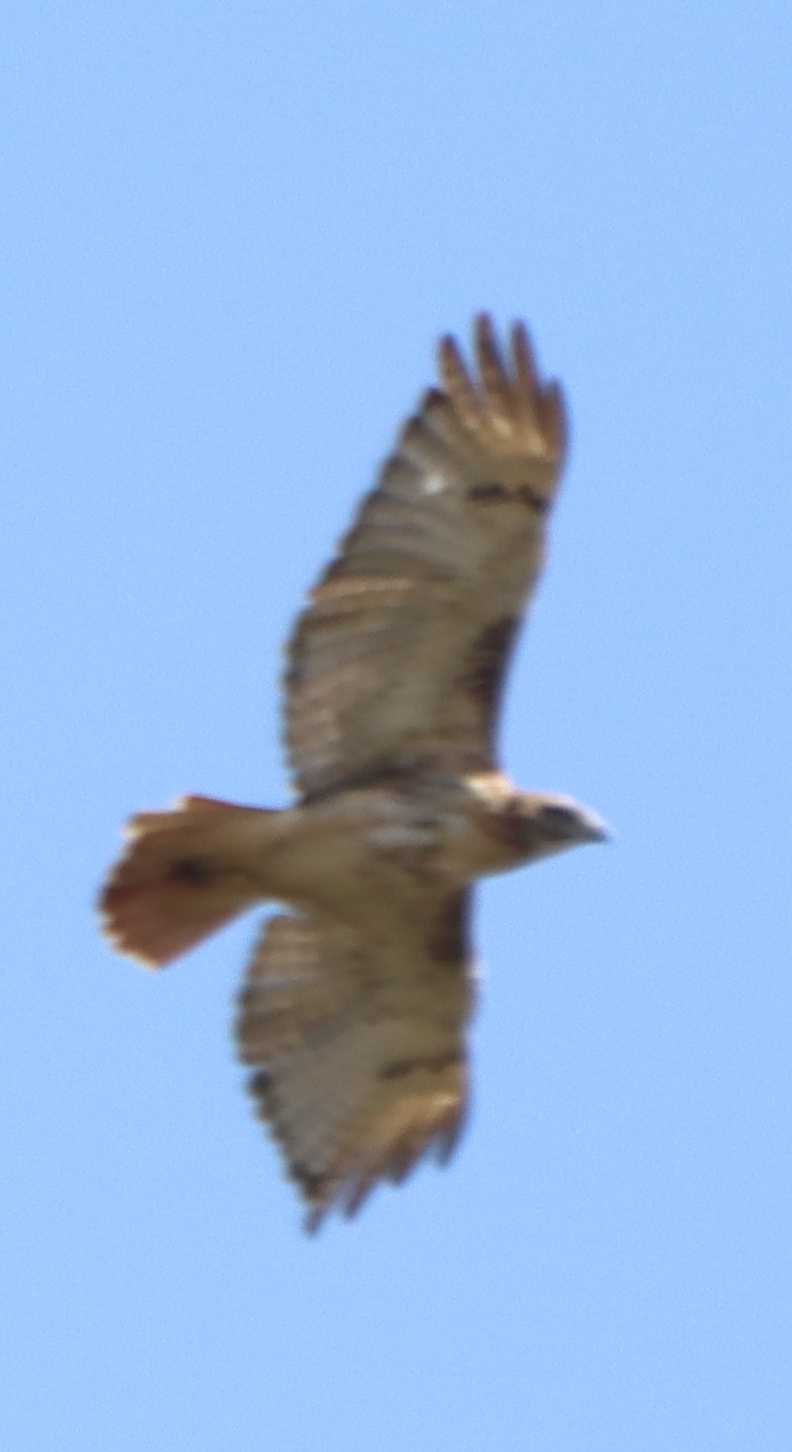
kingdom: Animalia
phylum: Chordata
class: Aves
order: Accipitriformes
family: Accipitridae
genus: Buteo
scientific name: Buteo jamaicensis
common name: Red-tailed hawk
